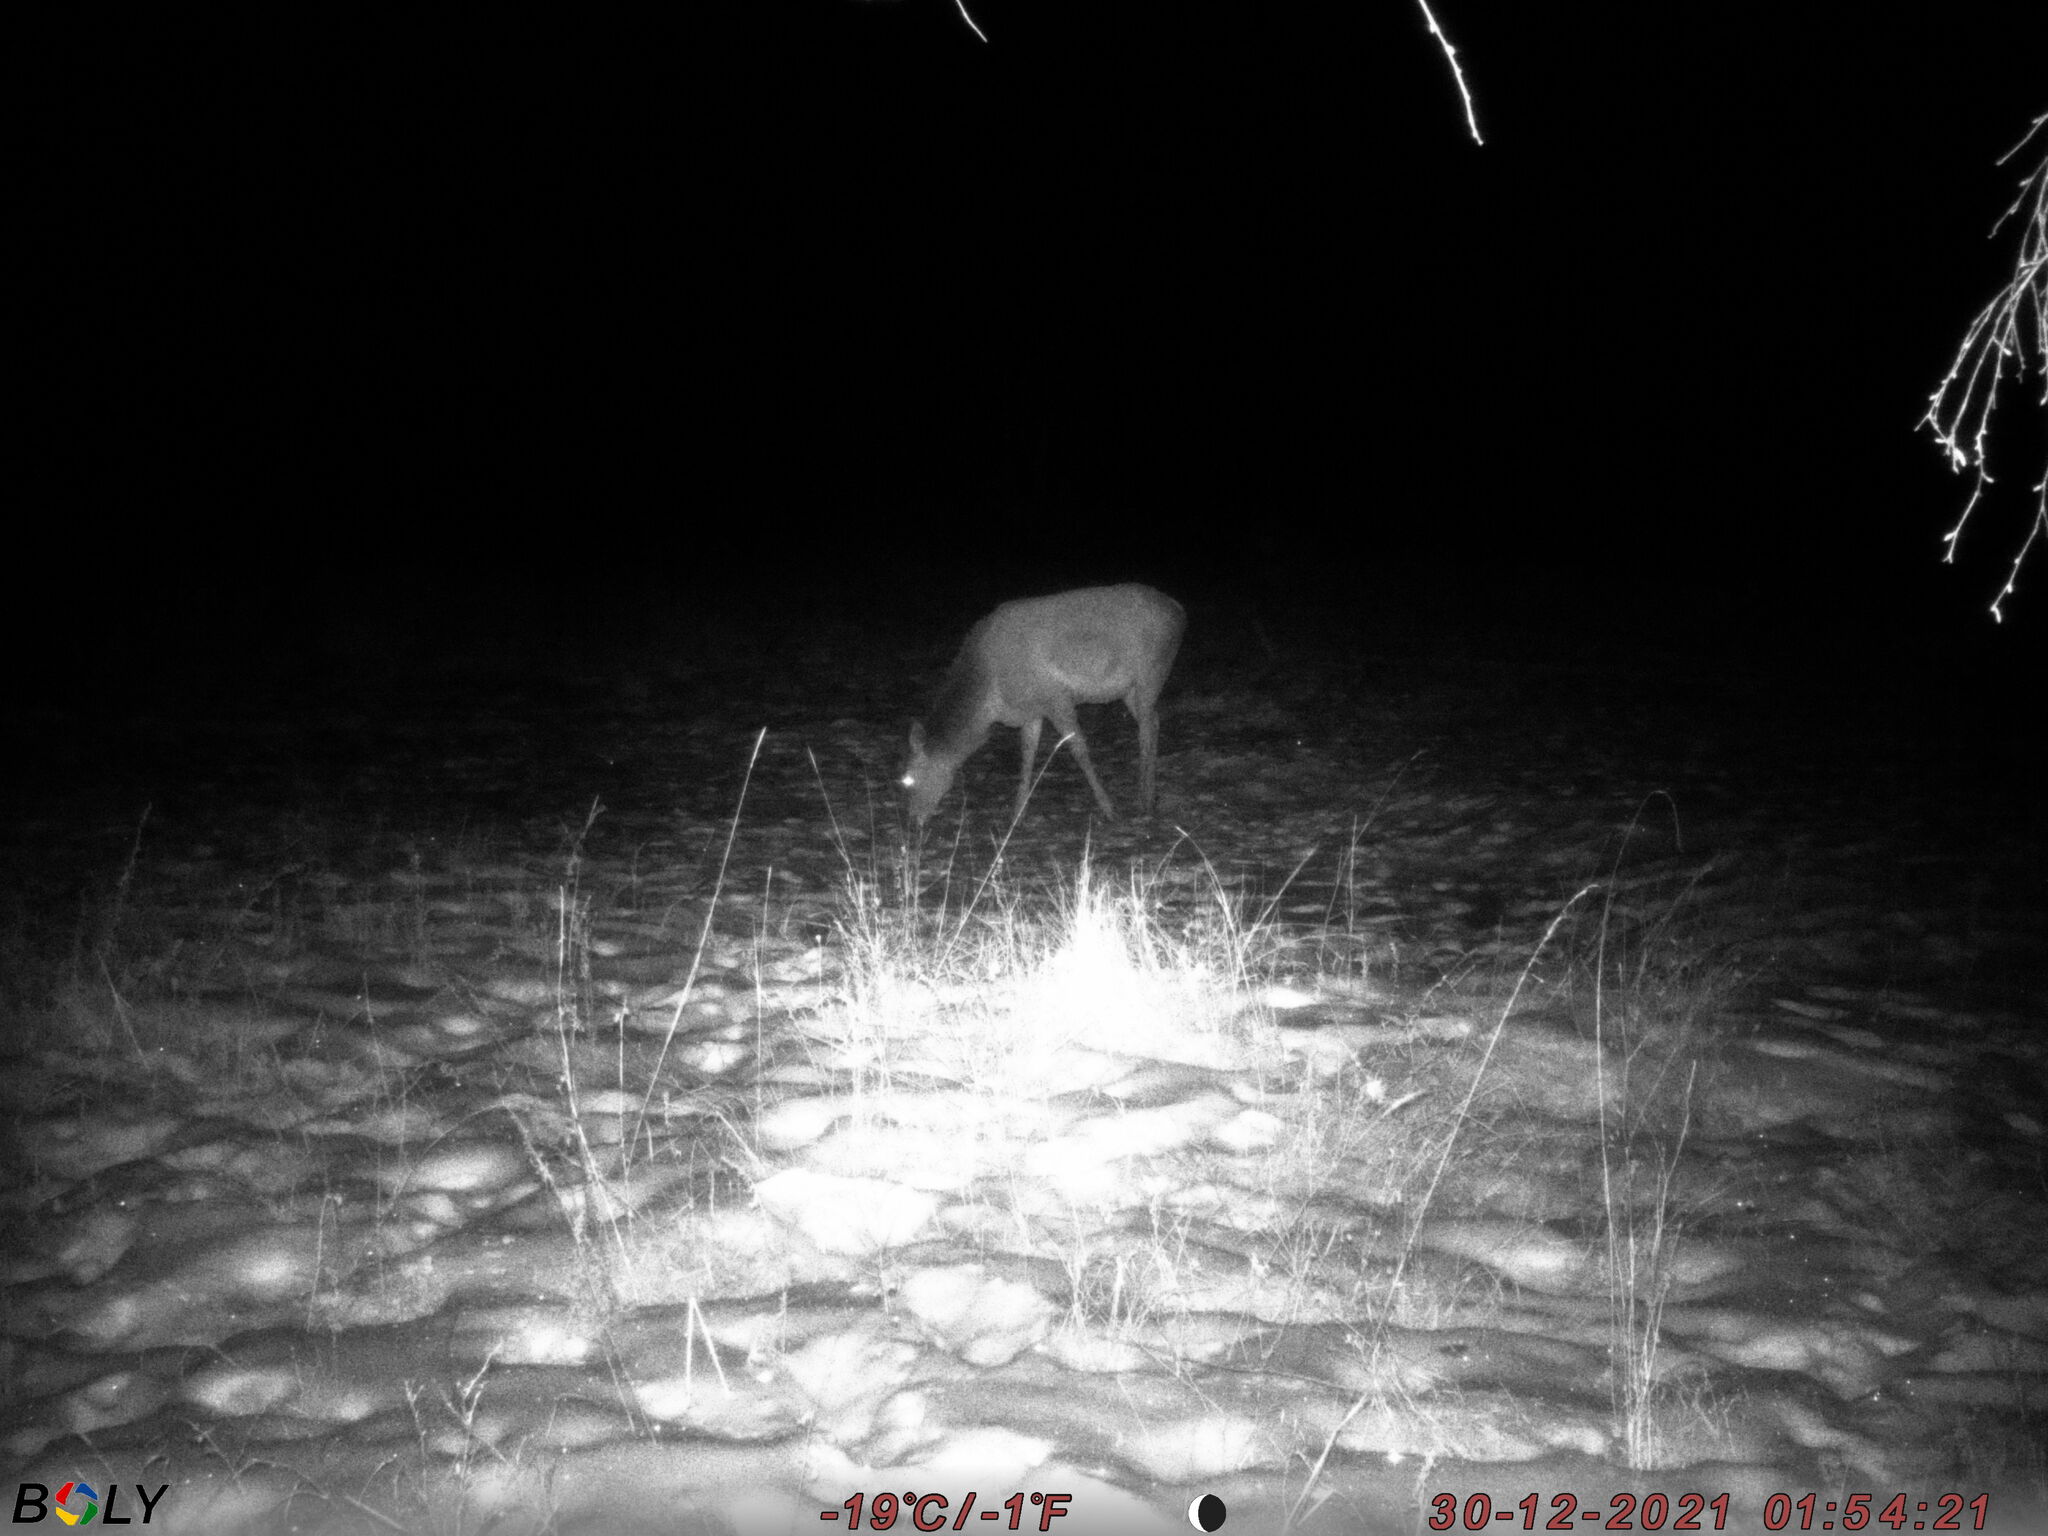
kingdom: Animalia
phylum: Chordata
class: Mammalia
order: Artiodactyla
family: Cervidae
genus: Cervus
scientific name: Cervus elaphus
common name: Red deer
